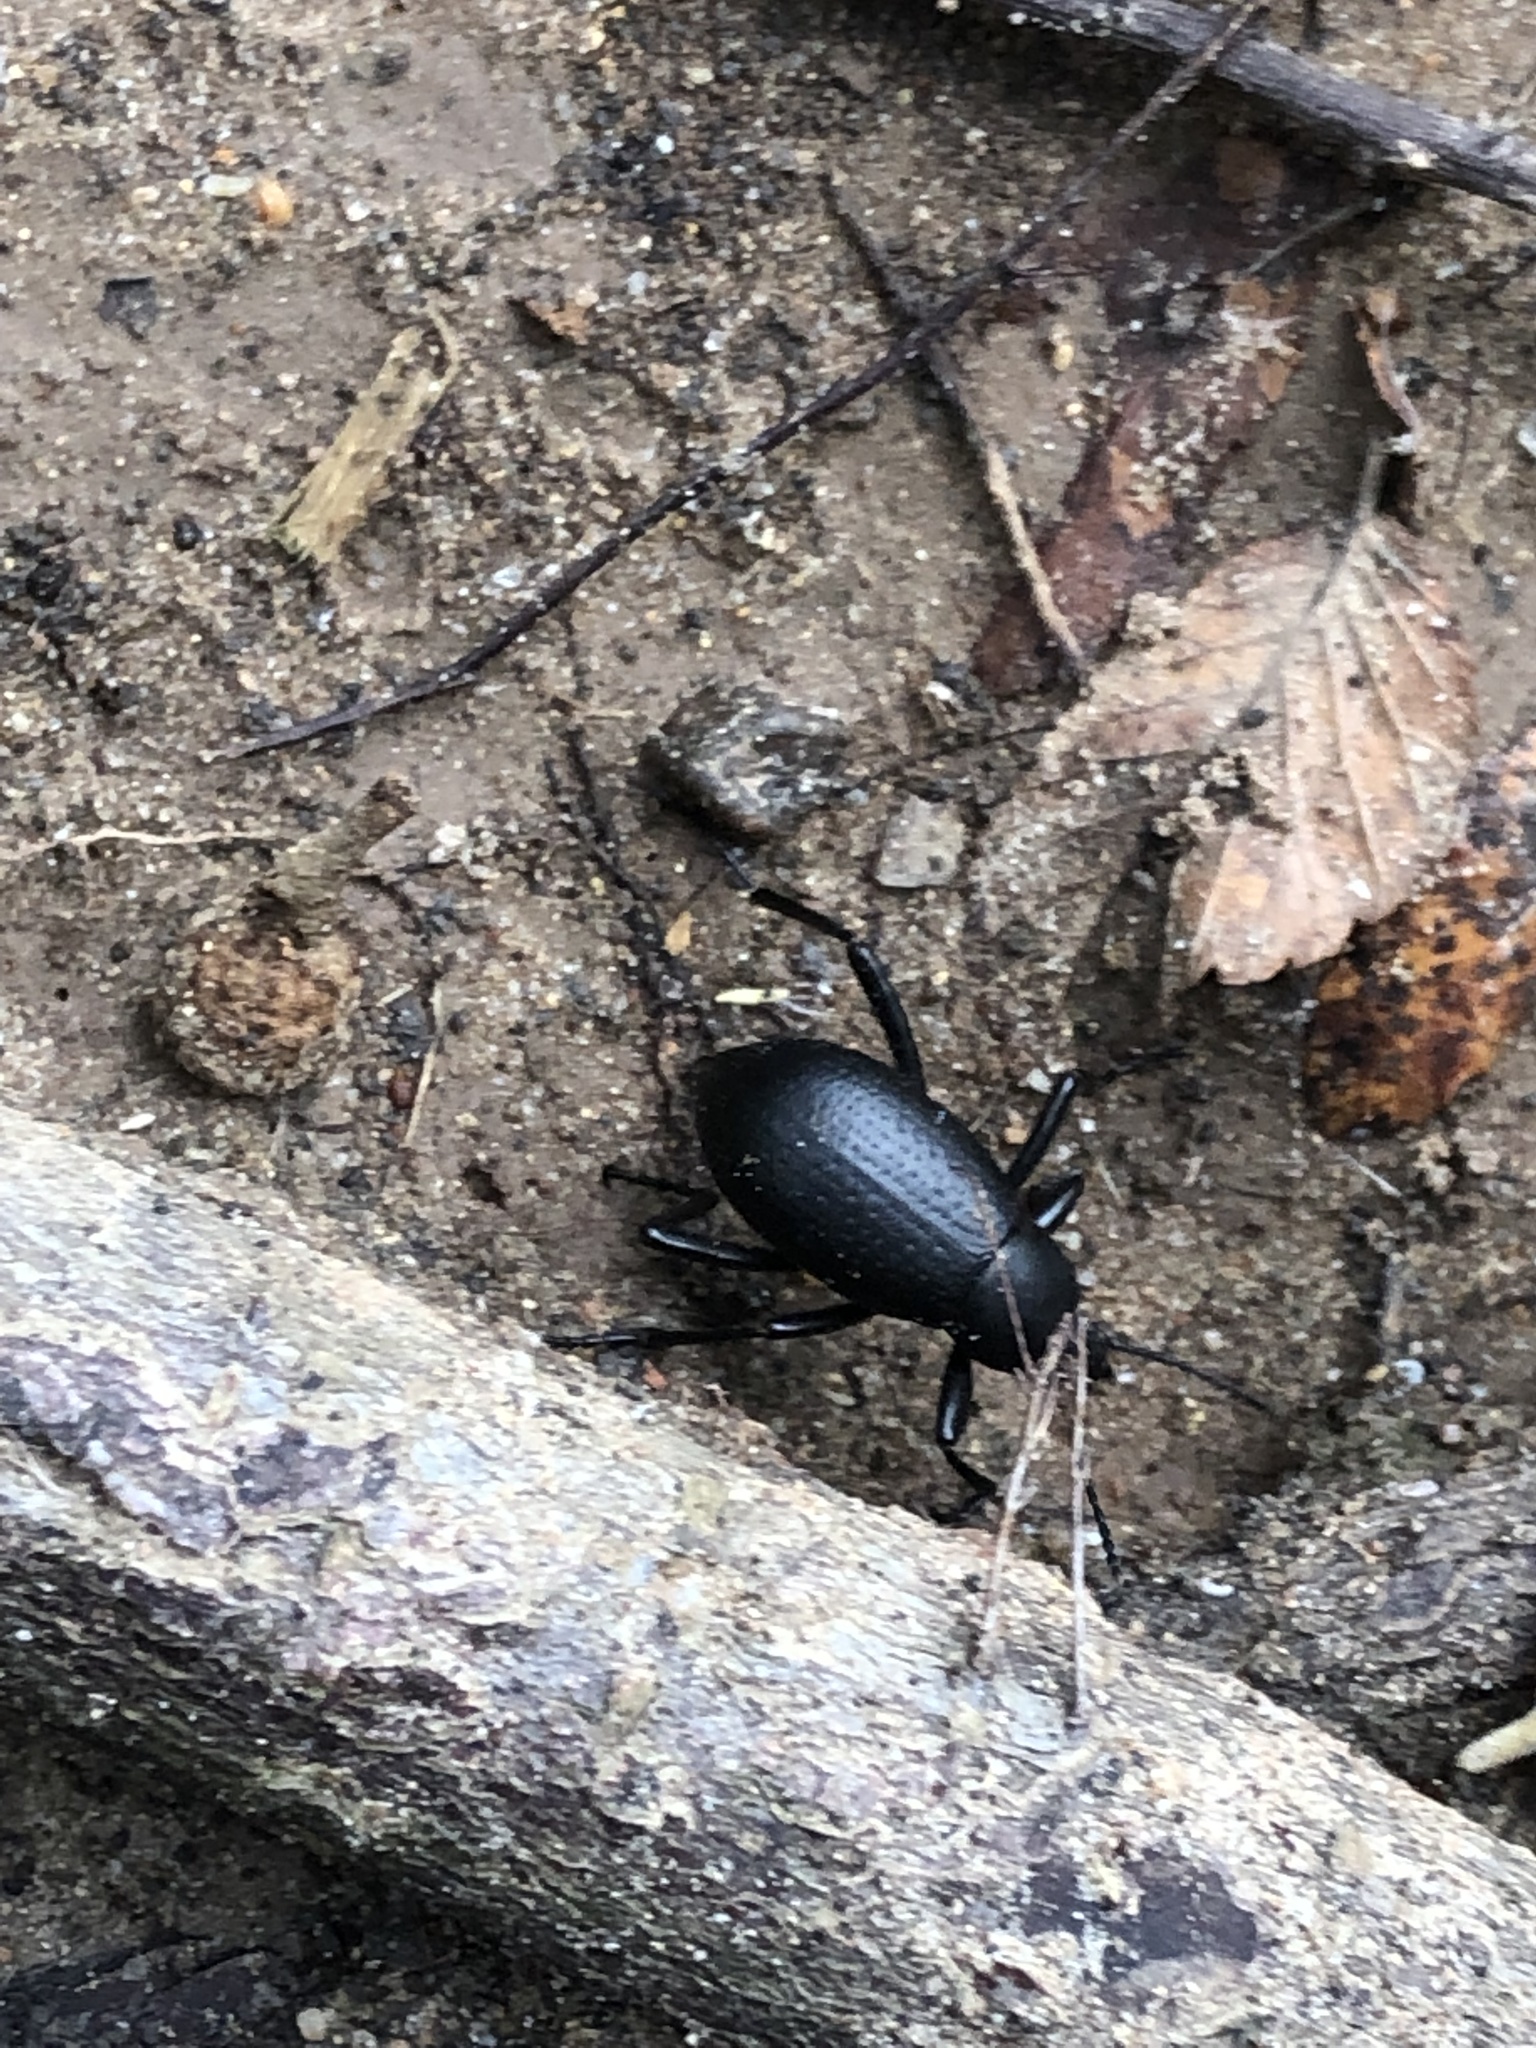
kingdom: Animalia
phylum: Arthropoda
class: Insecta
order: Coleoptera
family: Tenebrionidae
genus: Eleodes
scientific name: Eleodes goryi
